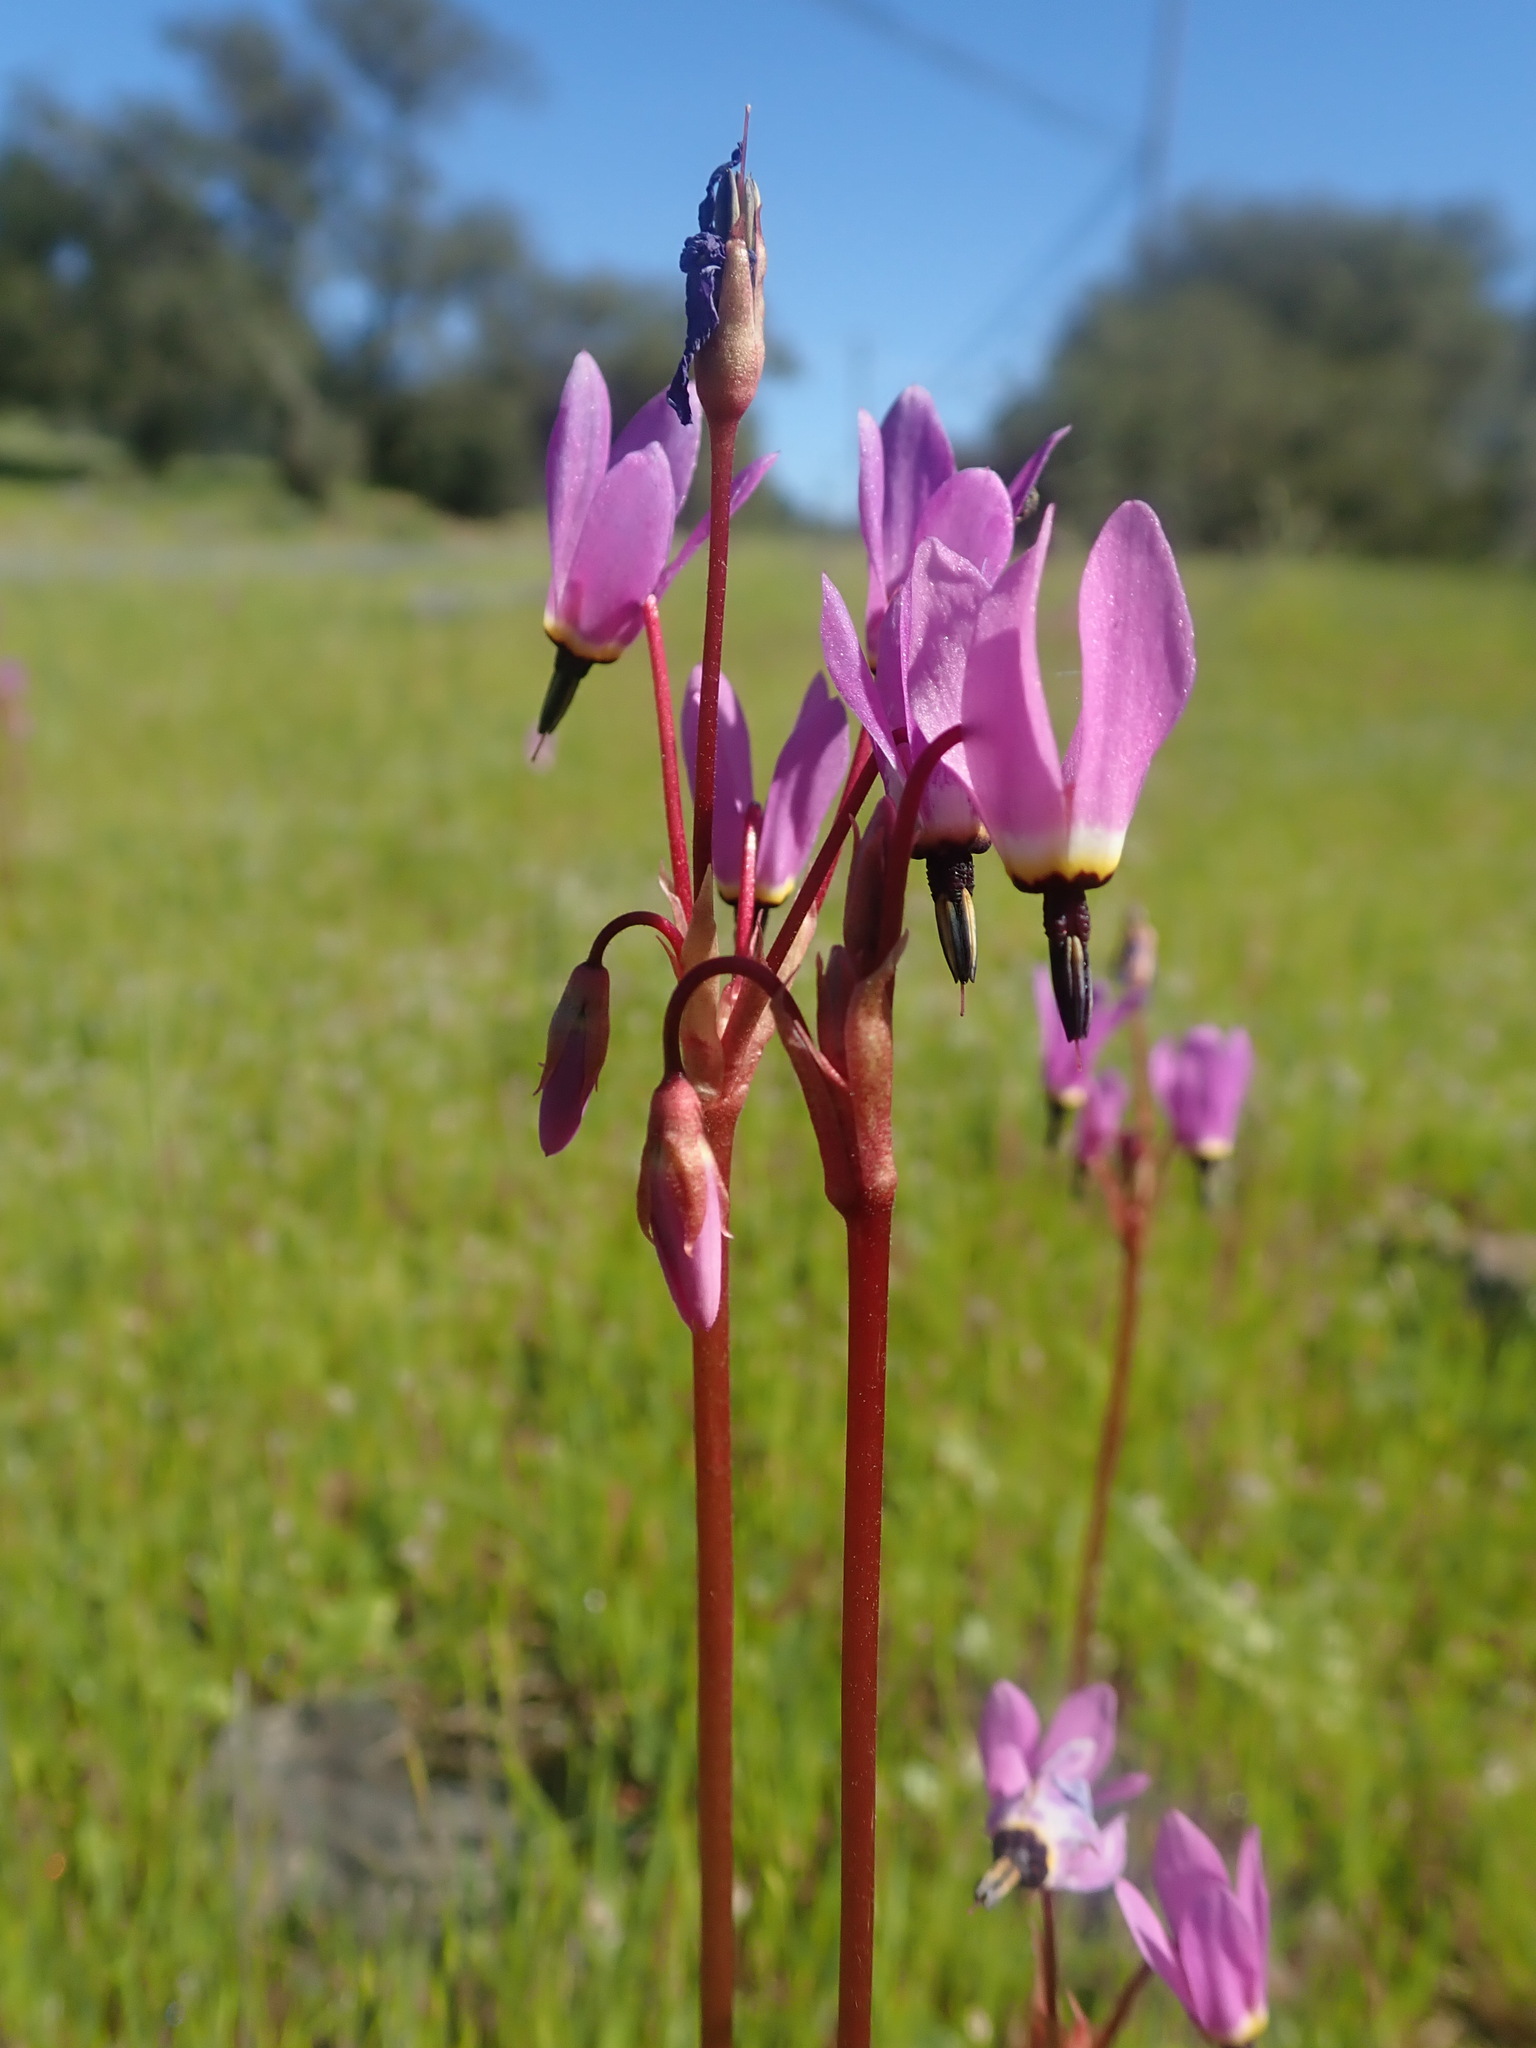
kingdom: Plantae
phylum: Tracheophyta
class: Magnoliopsida
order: Ericales
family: Primulaceae
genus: Dodecatheon
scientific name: Dodecatheon hendersonii
